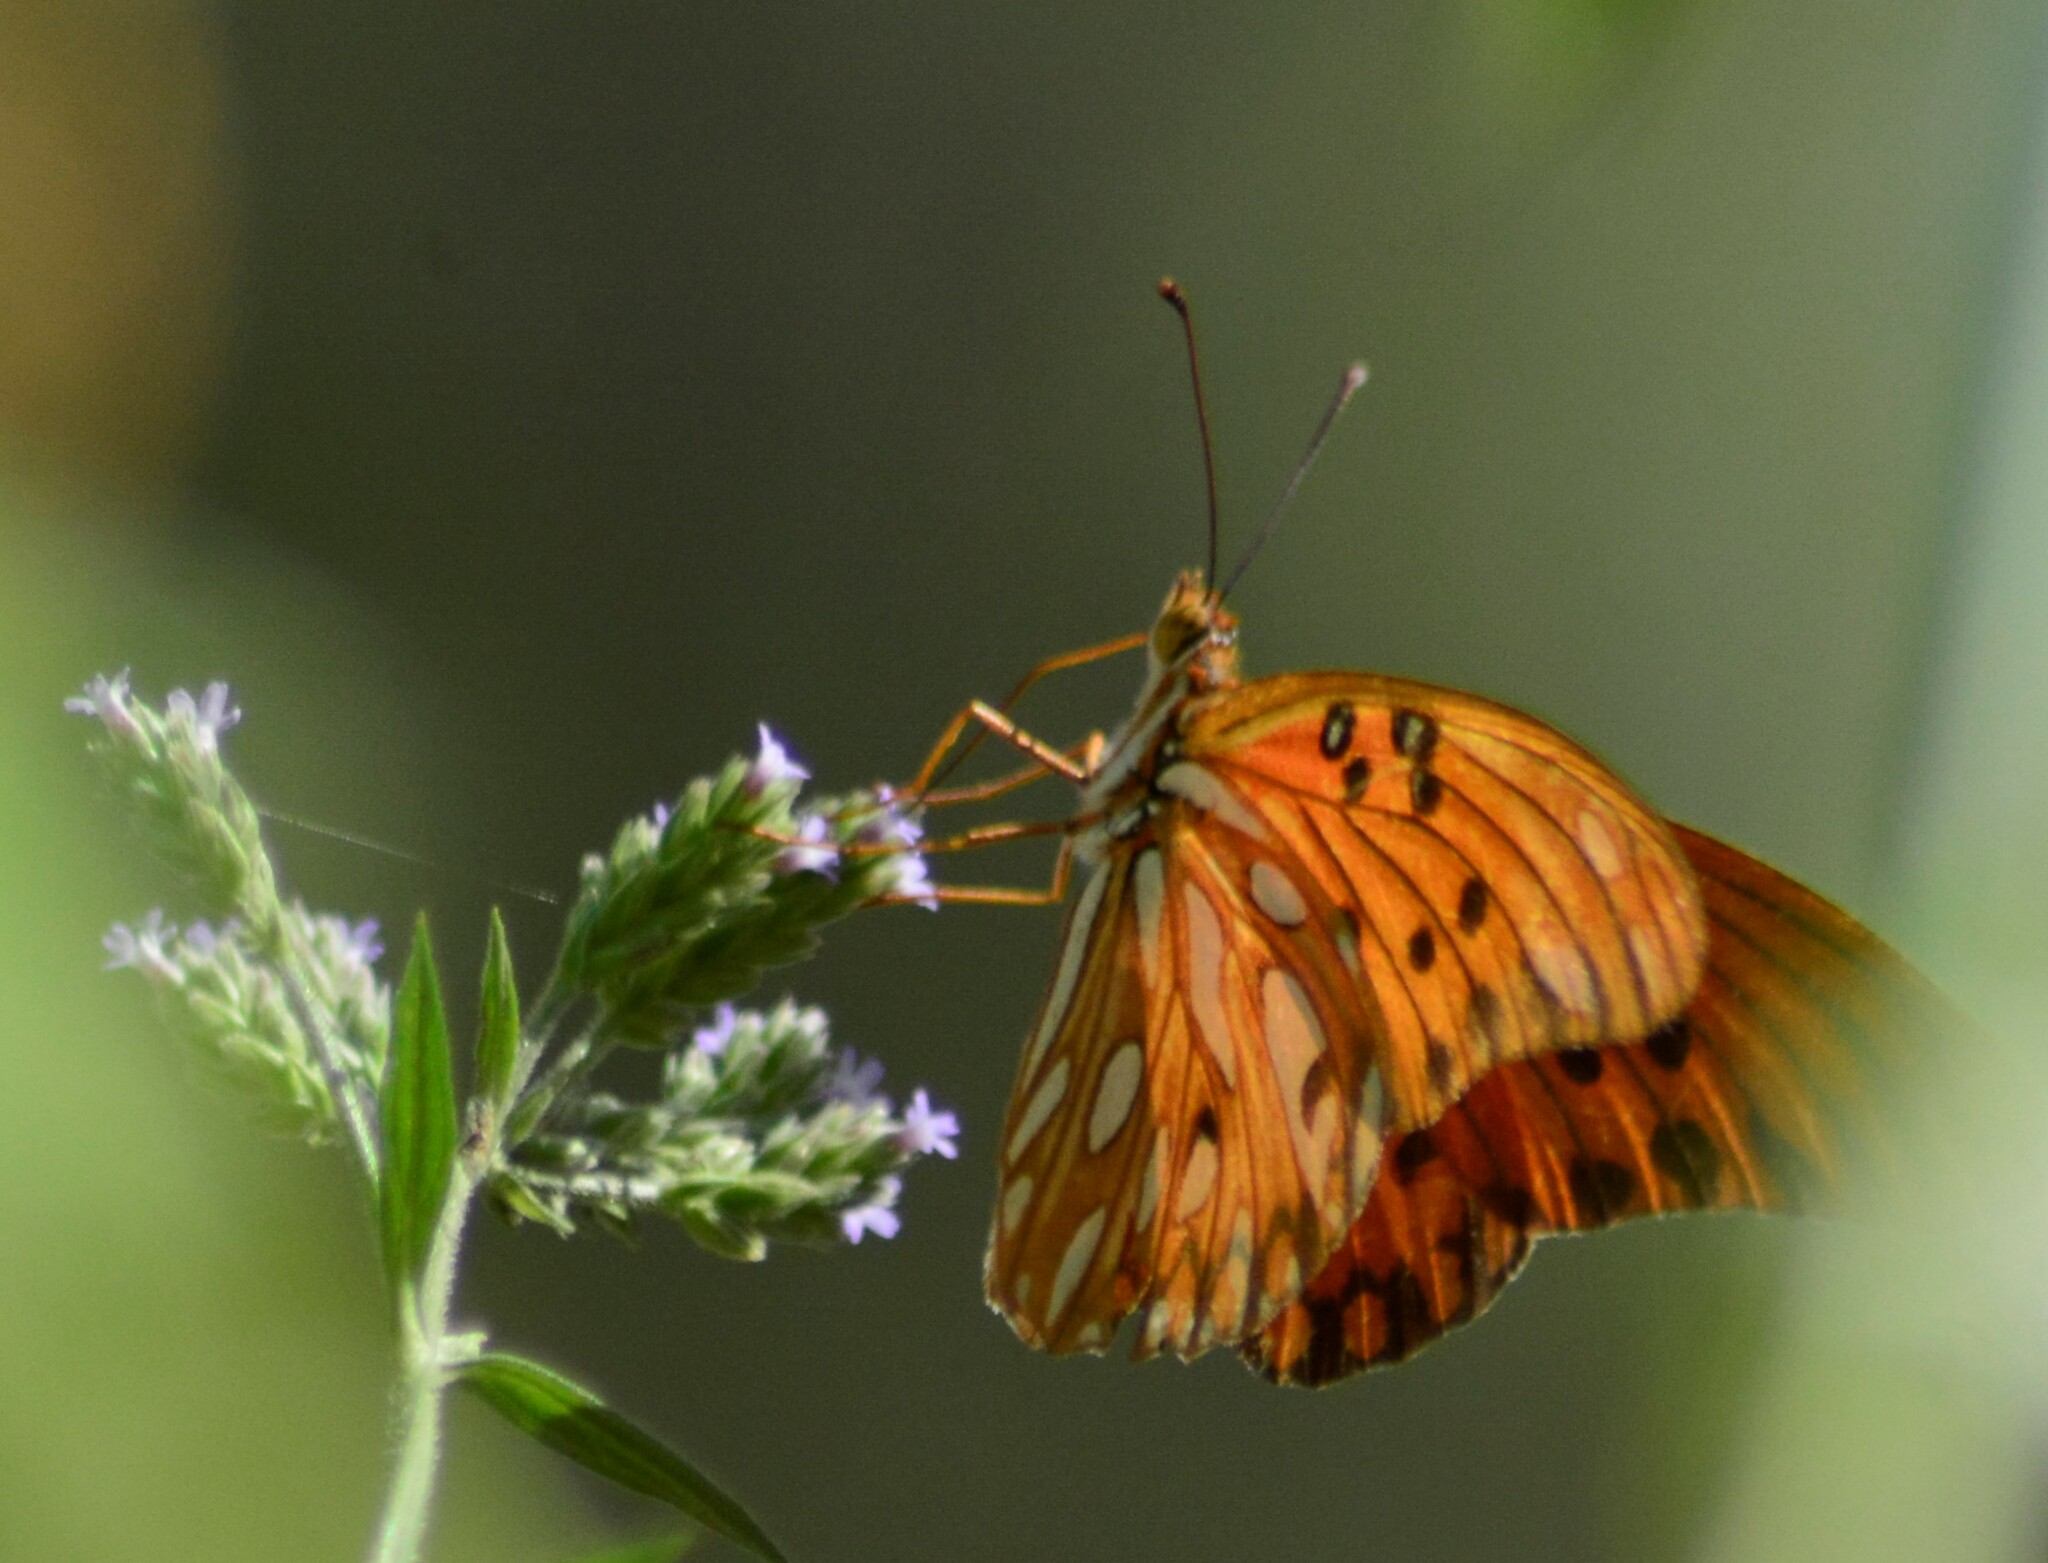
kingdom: Animalia
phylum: Arthropoda
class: Insecta
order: Lepidoptera
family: Nymphalidae
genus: Dione
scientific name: Dione vanillae
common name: Gulf fritillary
